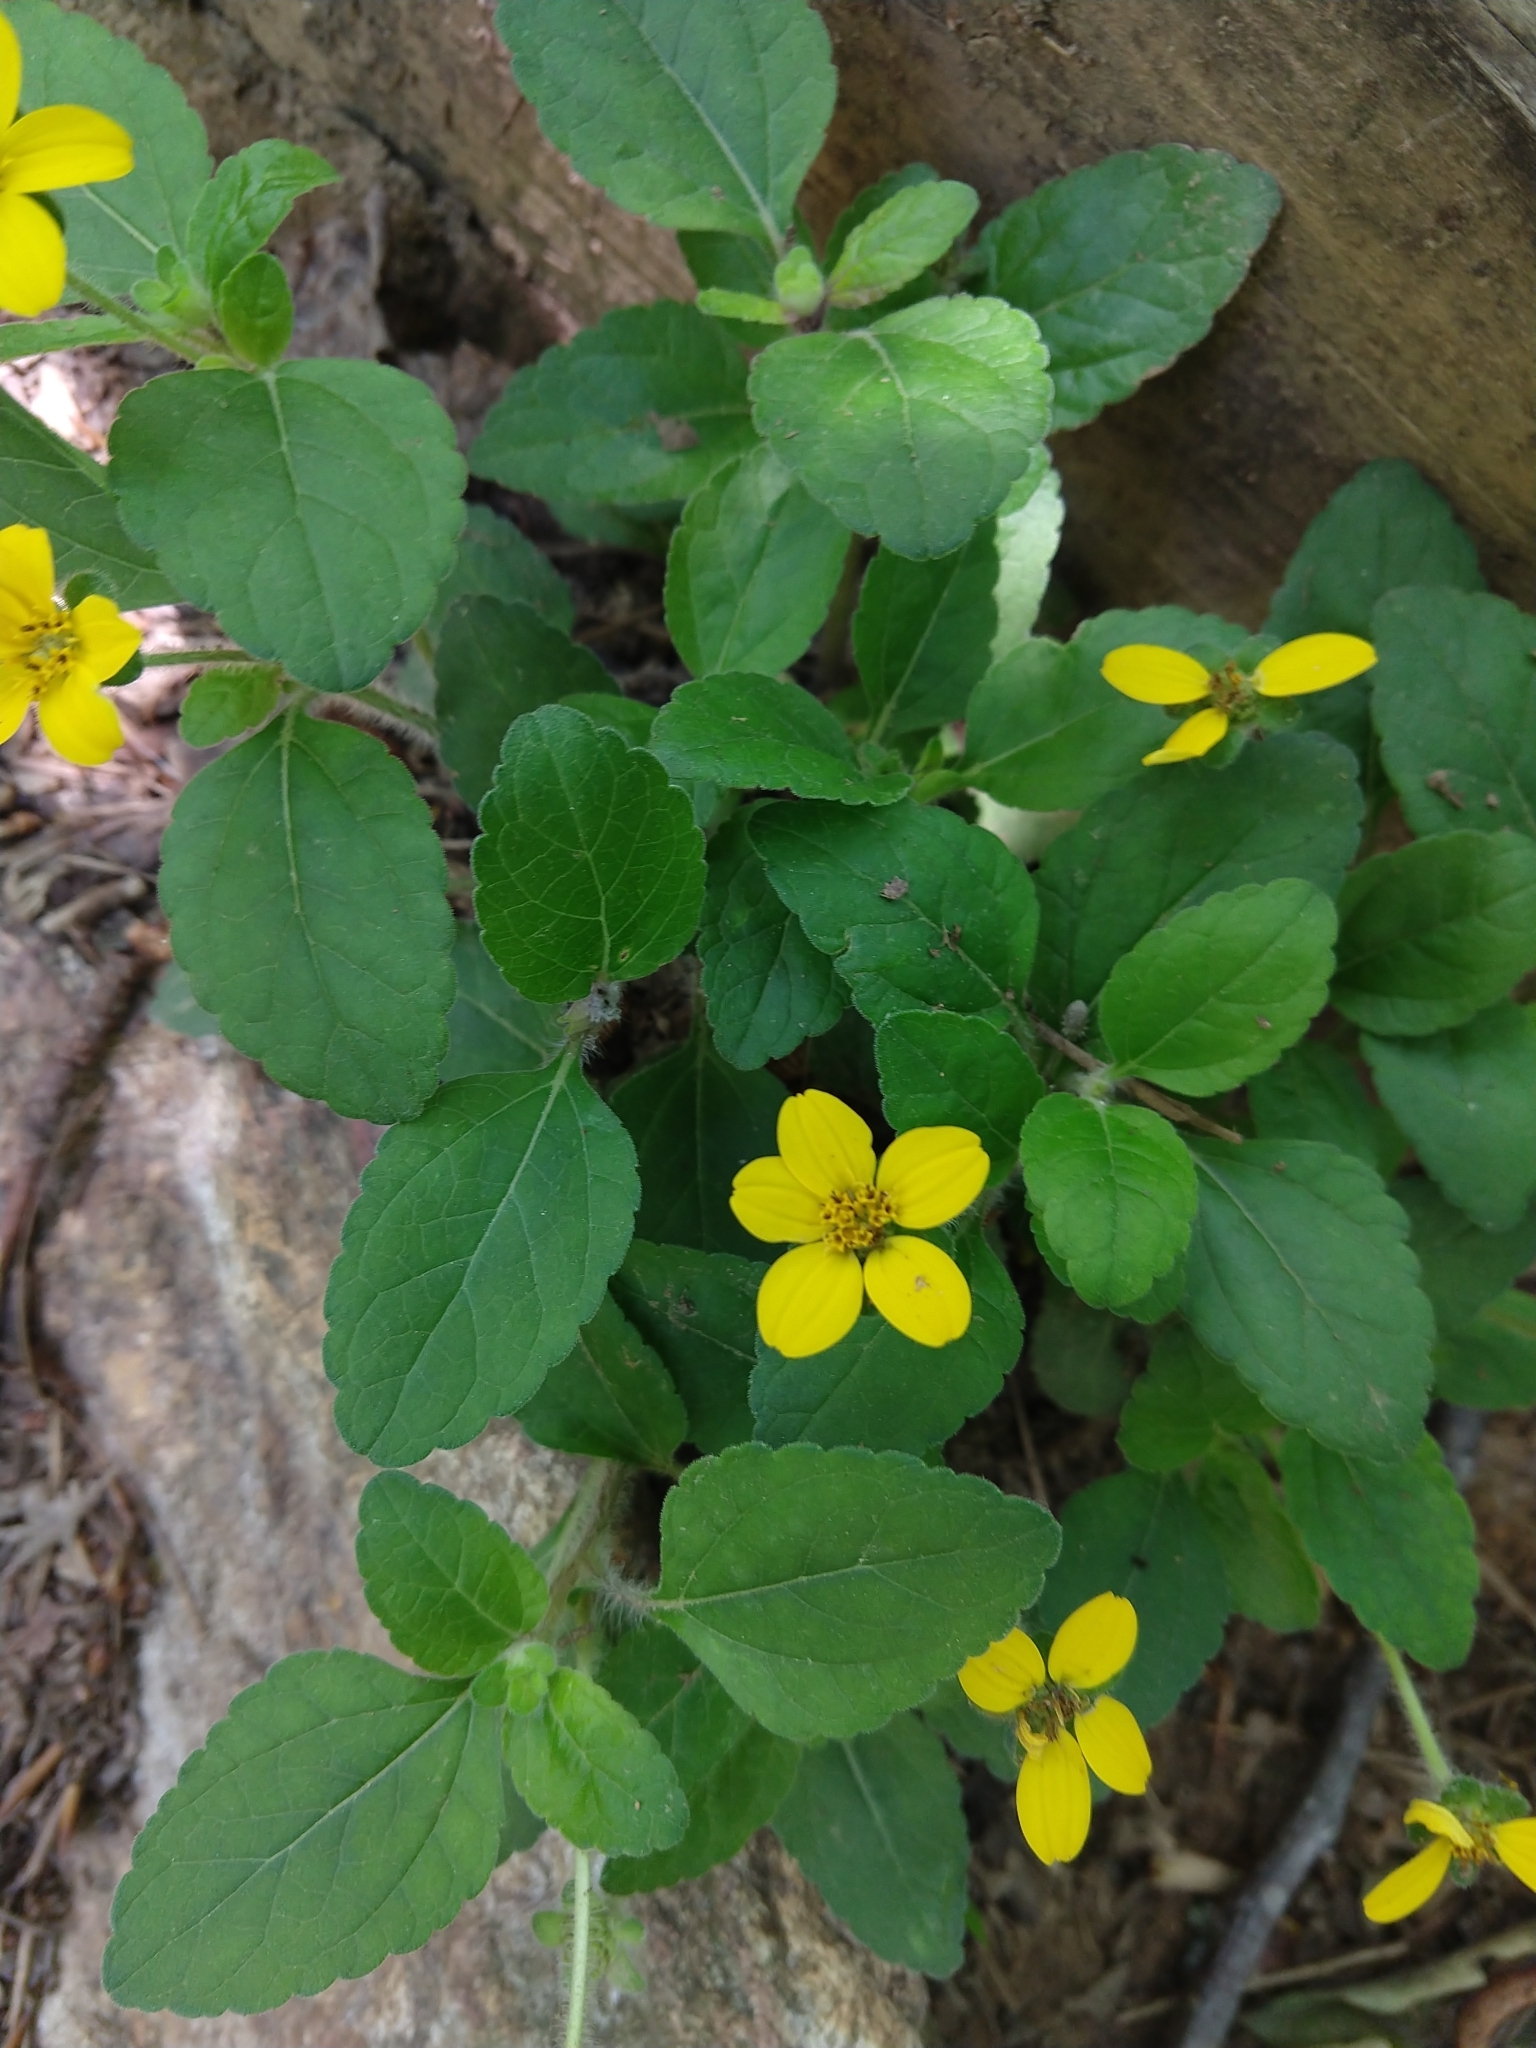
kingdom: Plantae
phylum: Tracheophyta
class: Magnoliopsida
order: Asterales
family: Asteraceae
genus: Chrysogonum
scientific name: Chrysogonum virginianum
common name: Golden-knee
